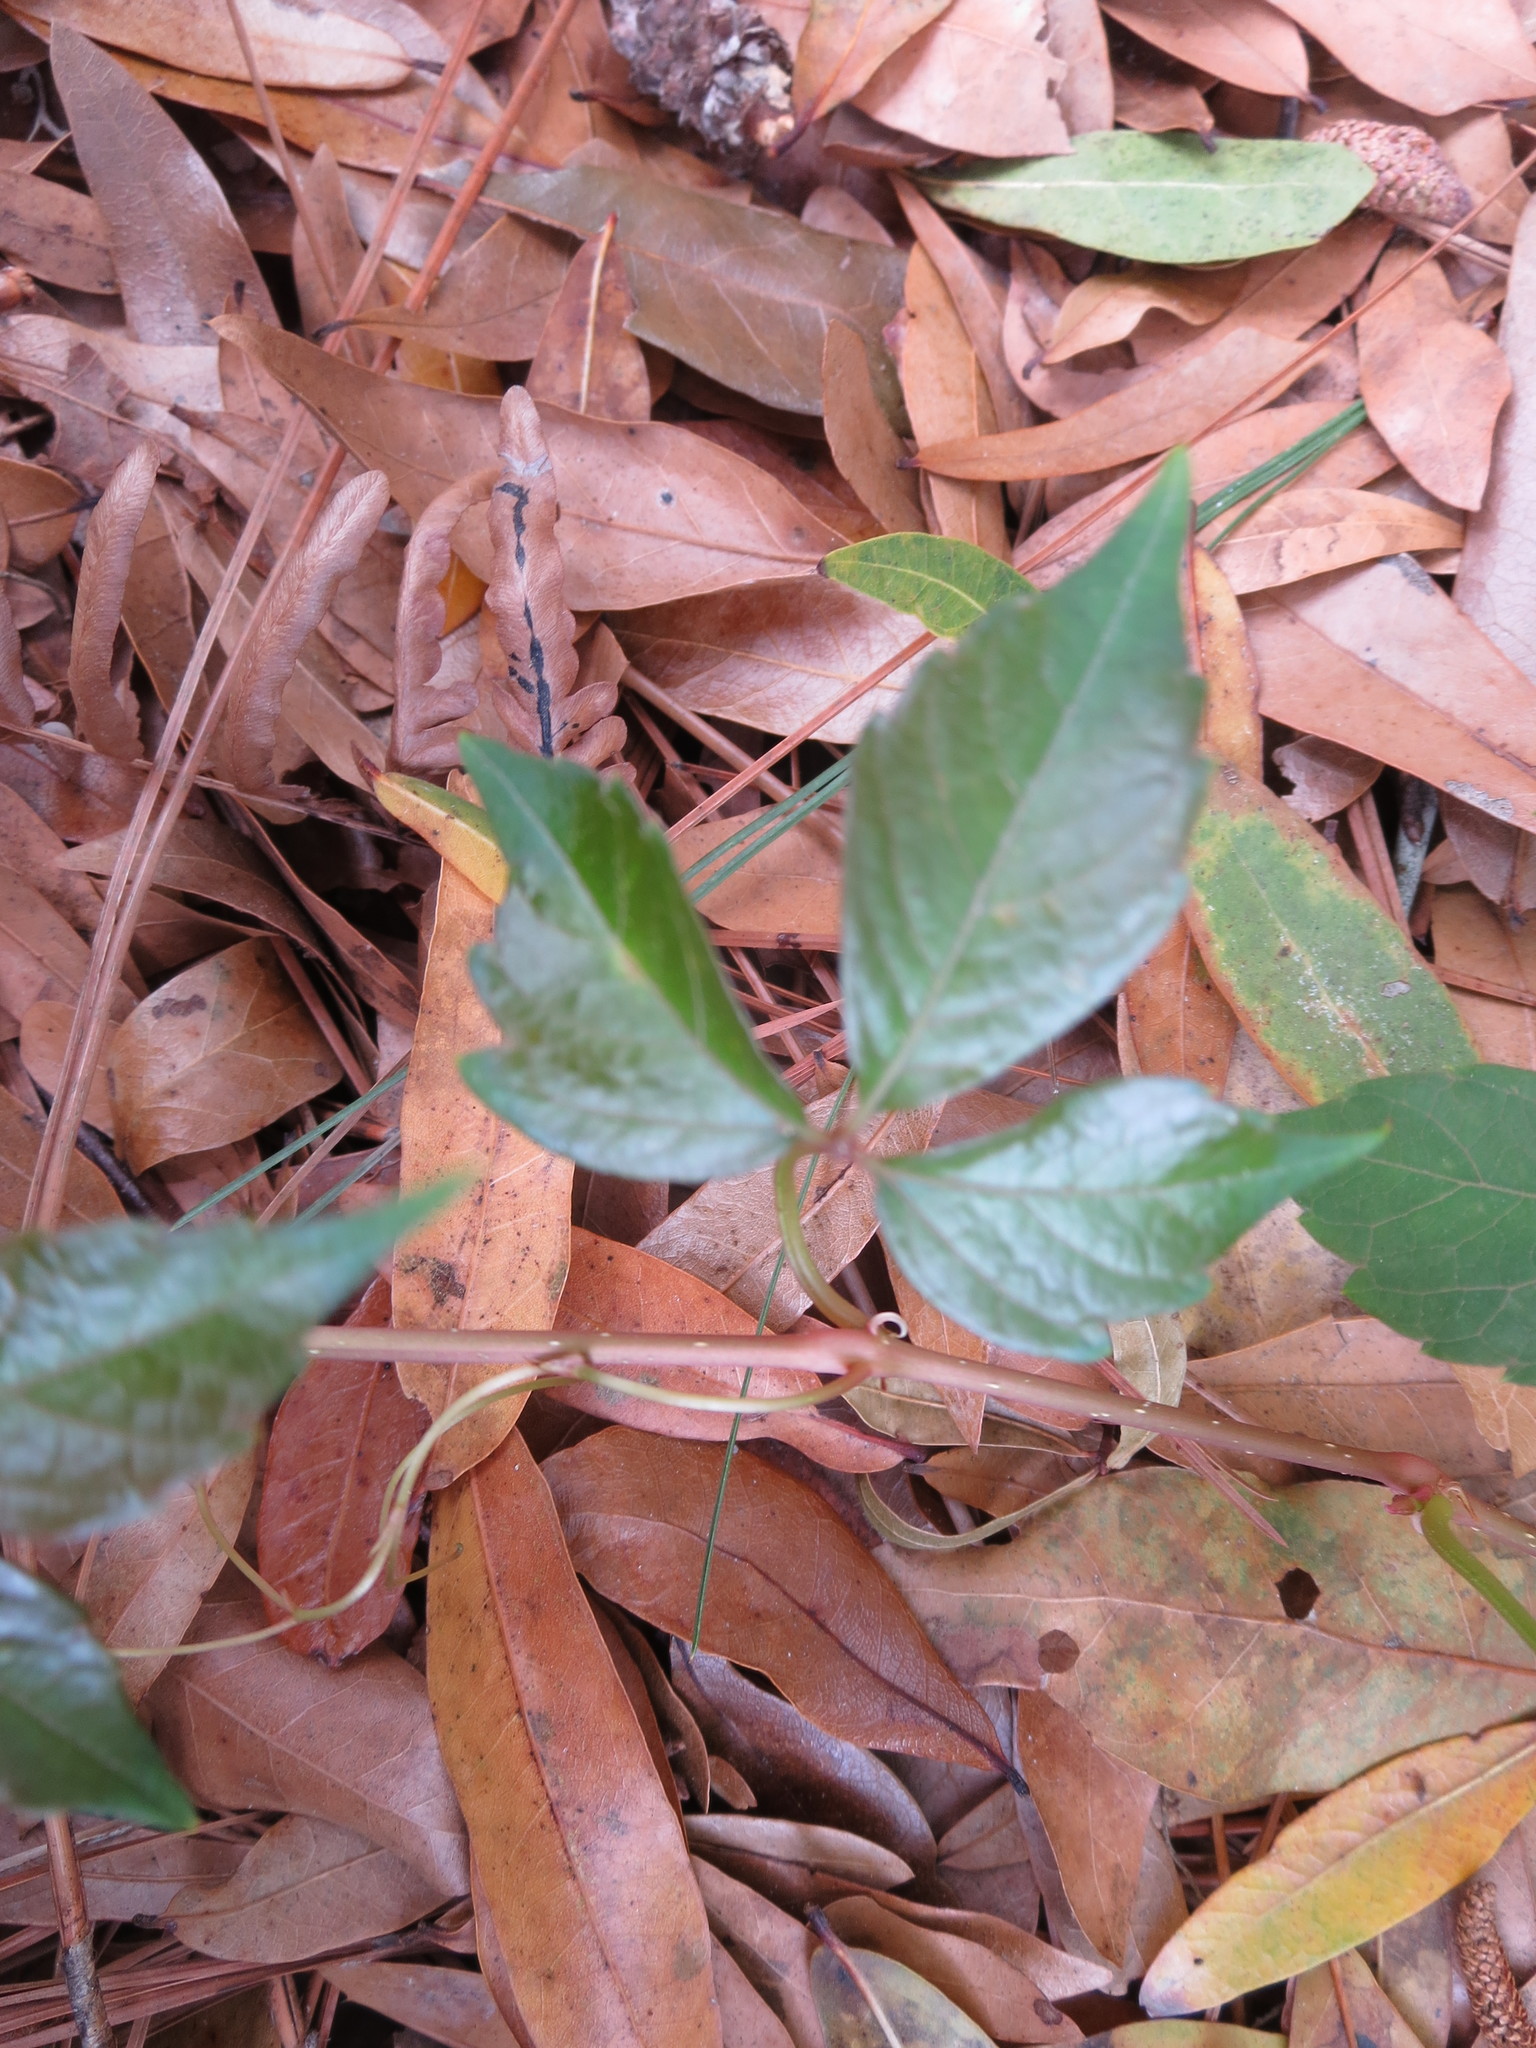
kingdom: Plantae
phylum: Tracheophyta
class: Magnoliopsida
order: Sapindales
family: Anacardiaceae
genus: Toxicodendron
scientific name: Toxicodendron radicans
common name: Poison ivy
